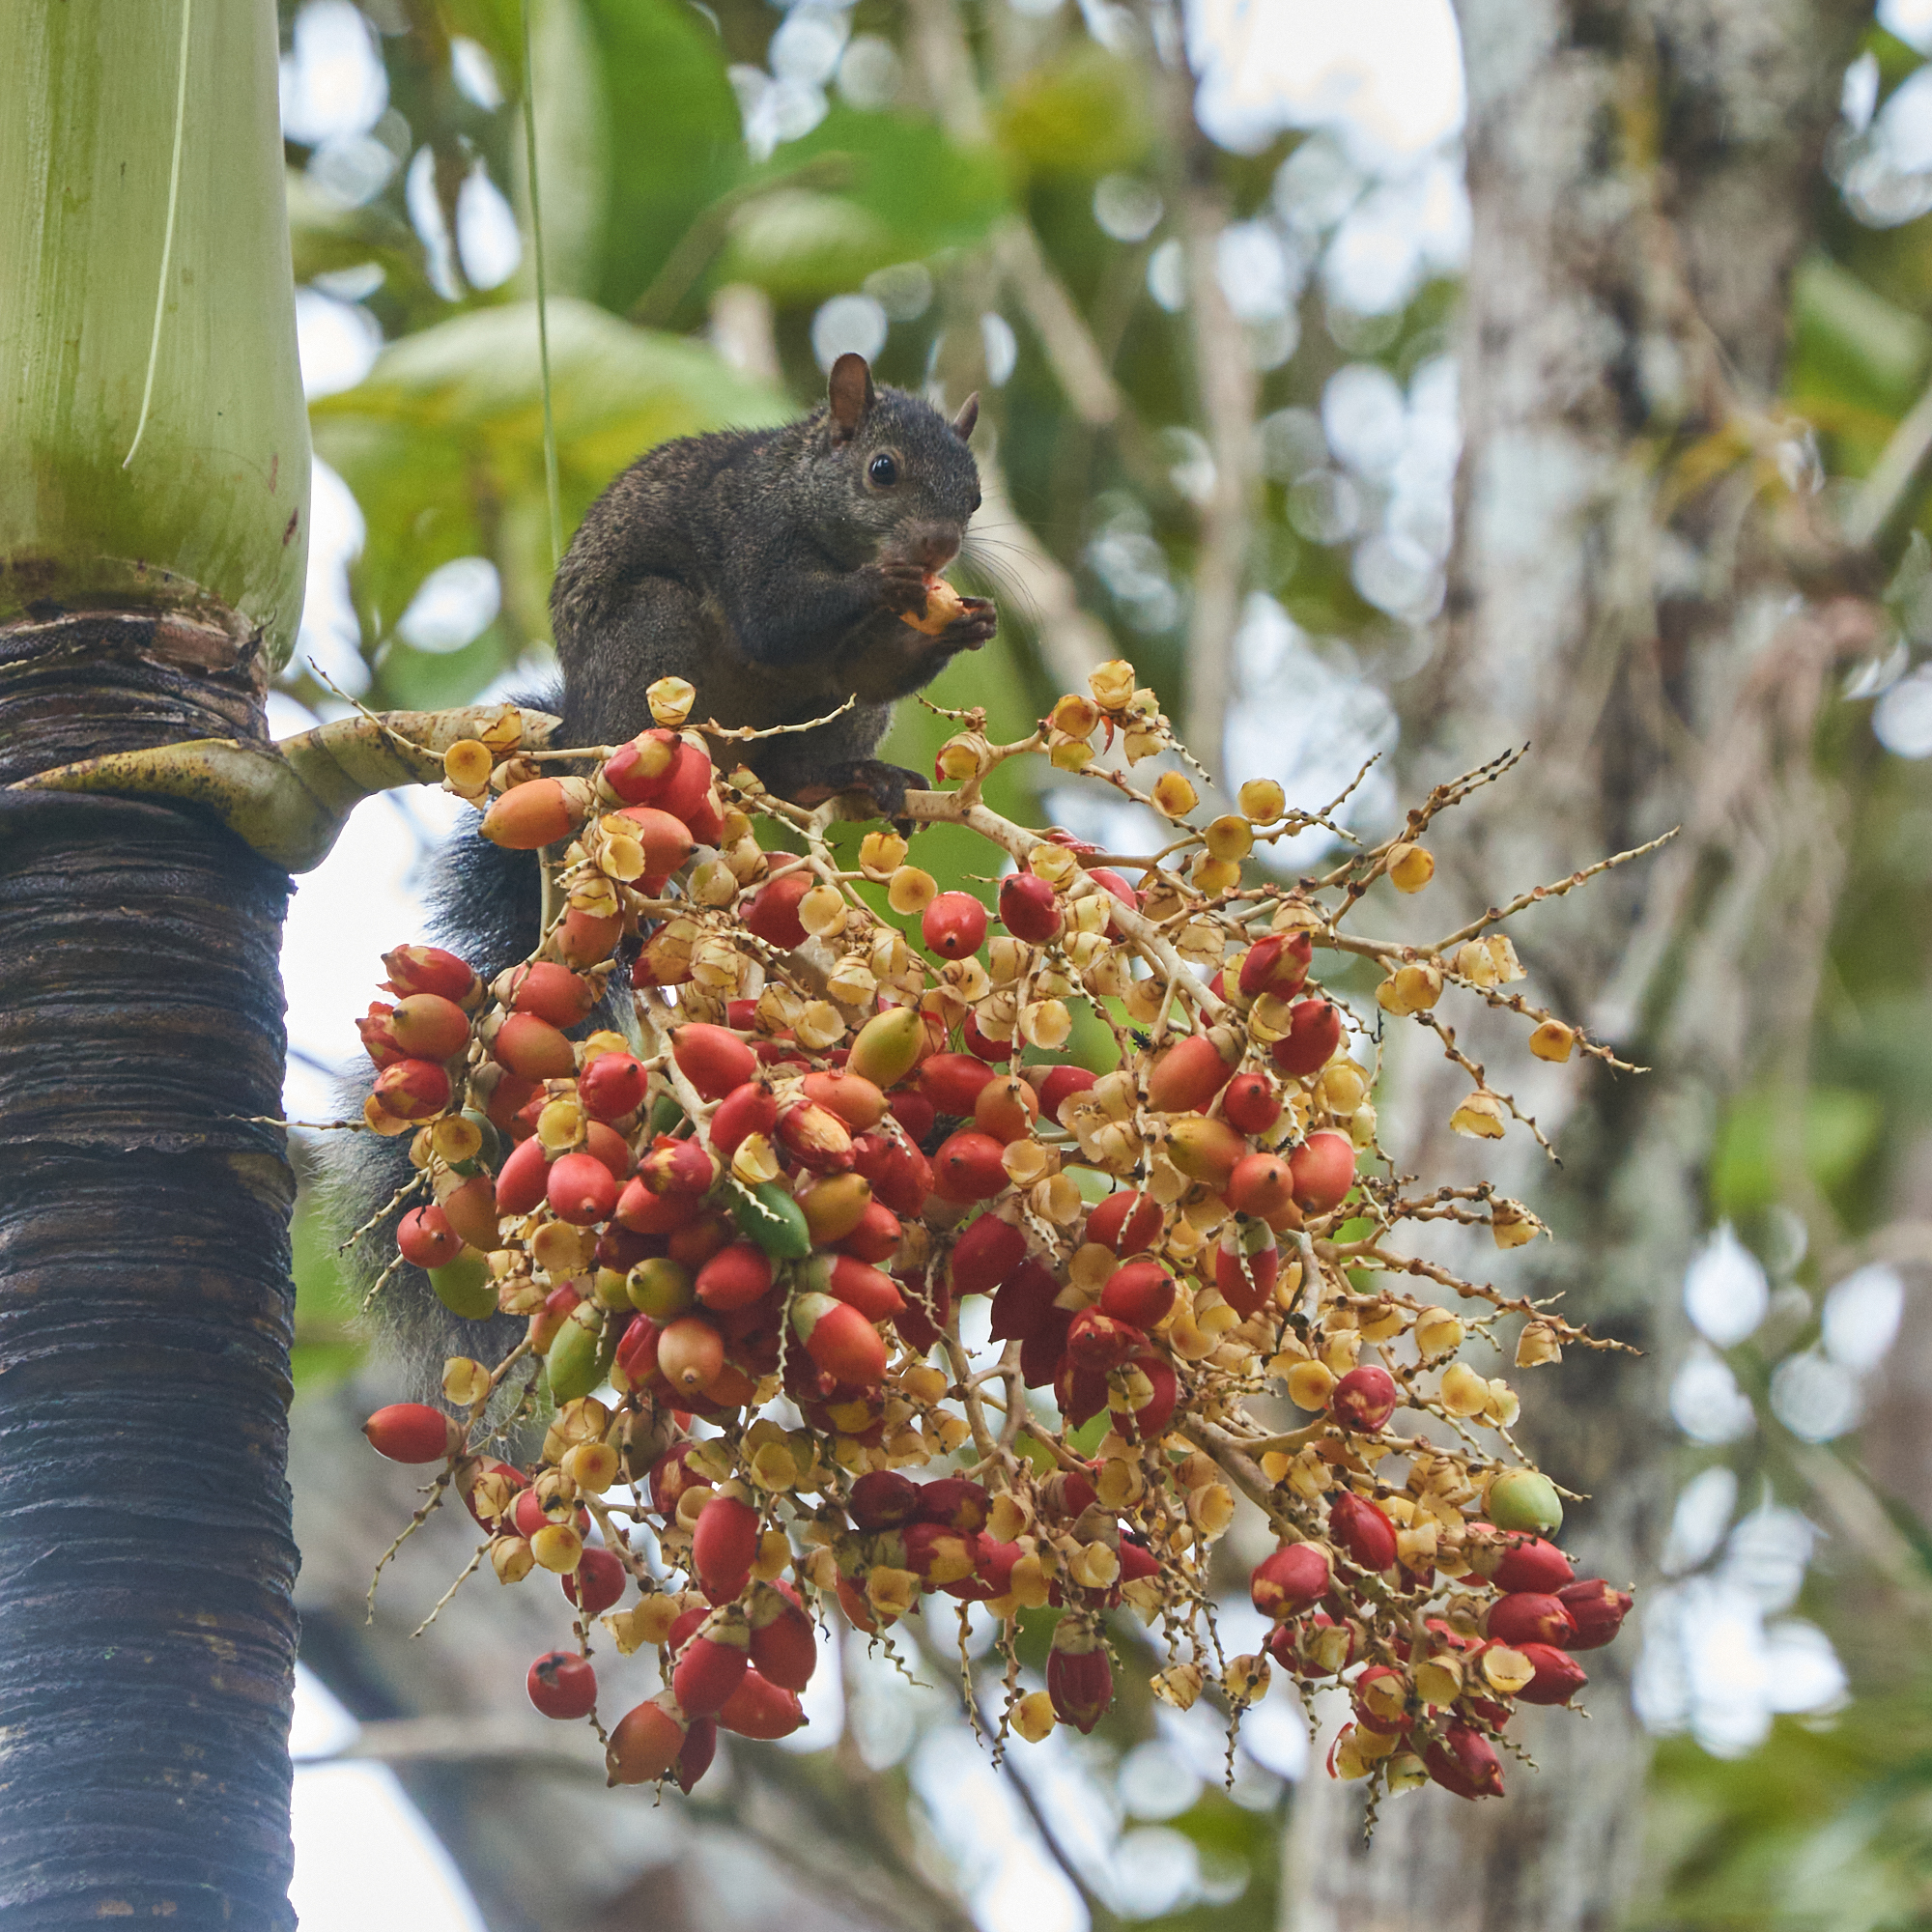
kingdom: Animalia
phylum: Chordata
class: Mammalia
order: Rodentia
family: Sciuridae
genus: Sciurus
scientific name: Sciurus yucatanensis
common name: Yucatan squirrel
